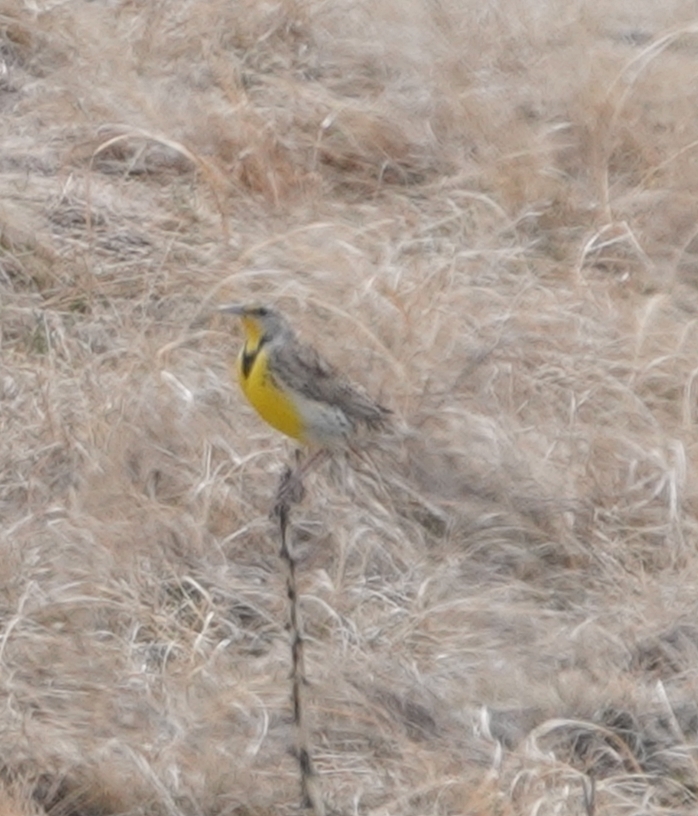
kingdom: Animalia
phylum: Chordata
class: Aves
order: Passeriformes
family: Icteridae
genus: Sturnella
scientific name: Sturnella neglecta
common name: Western meadowlark
